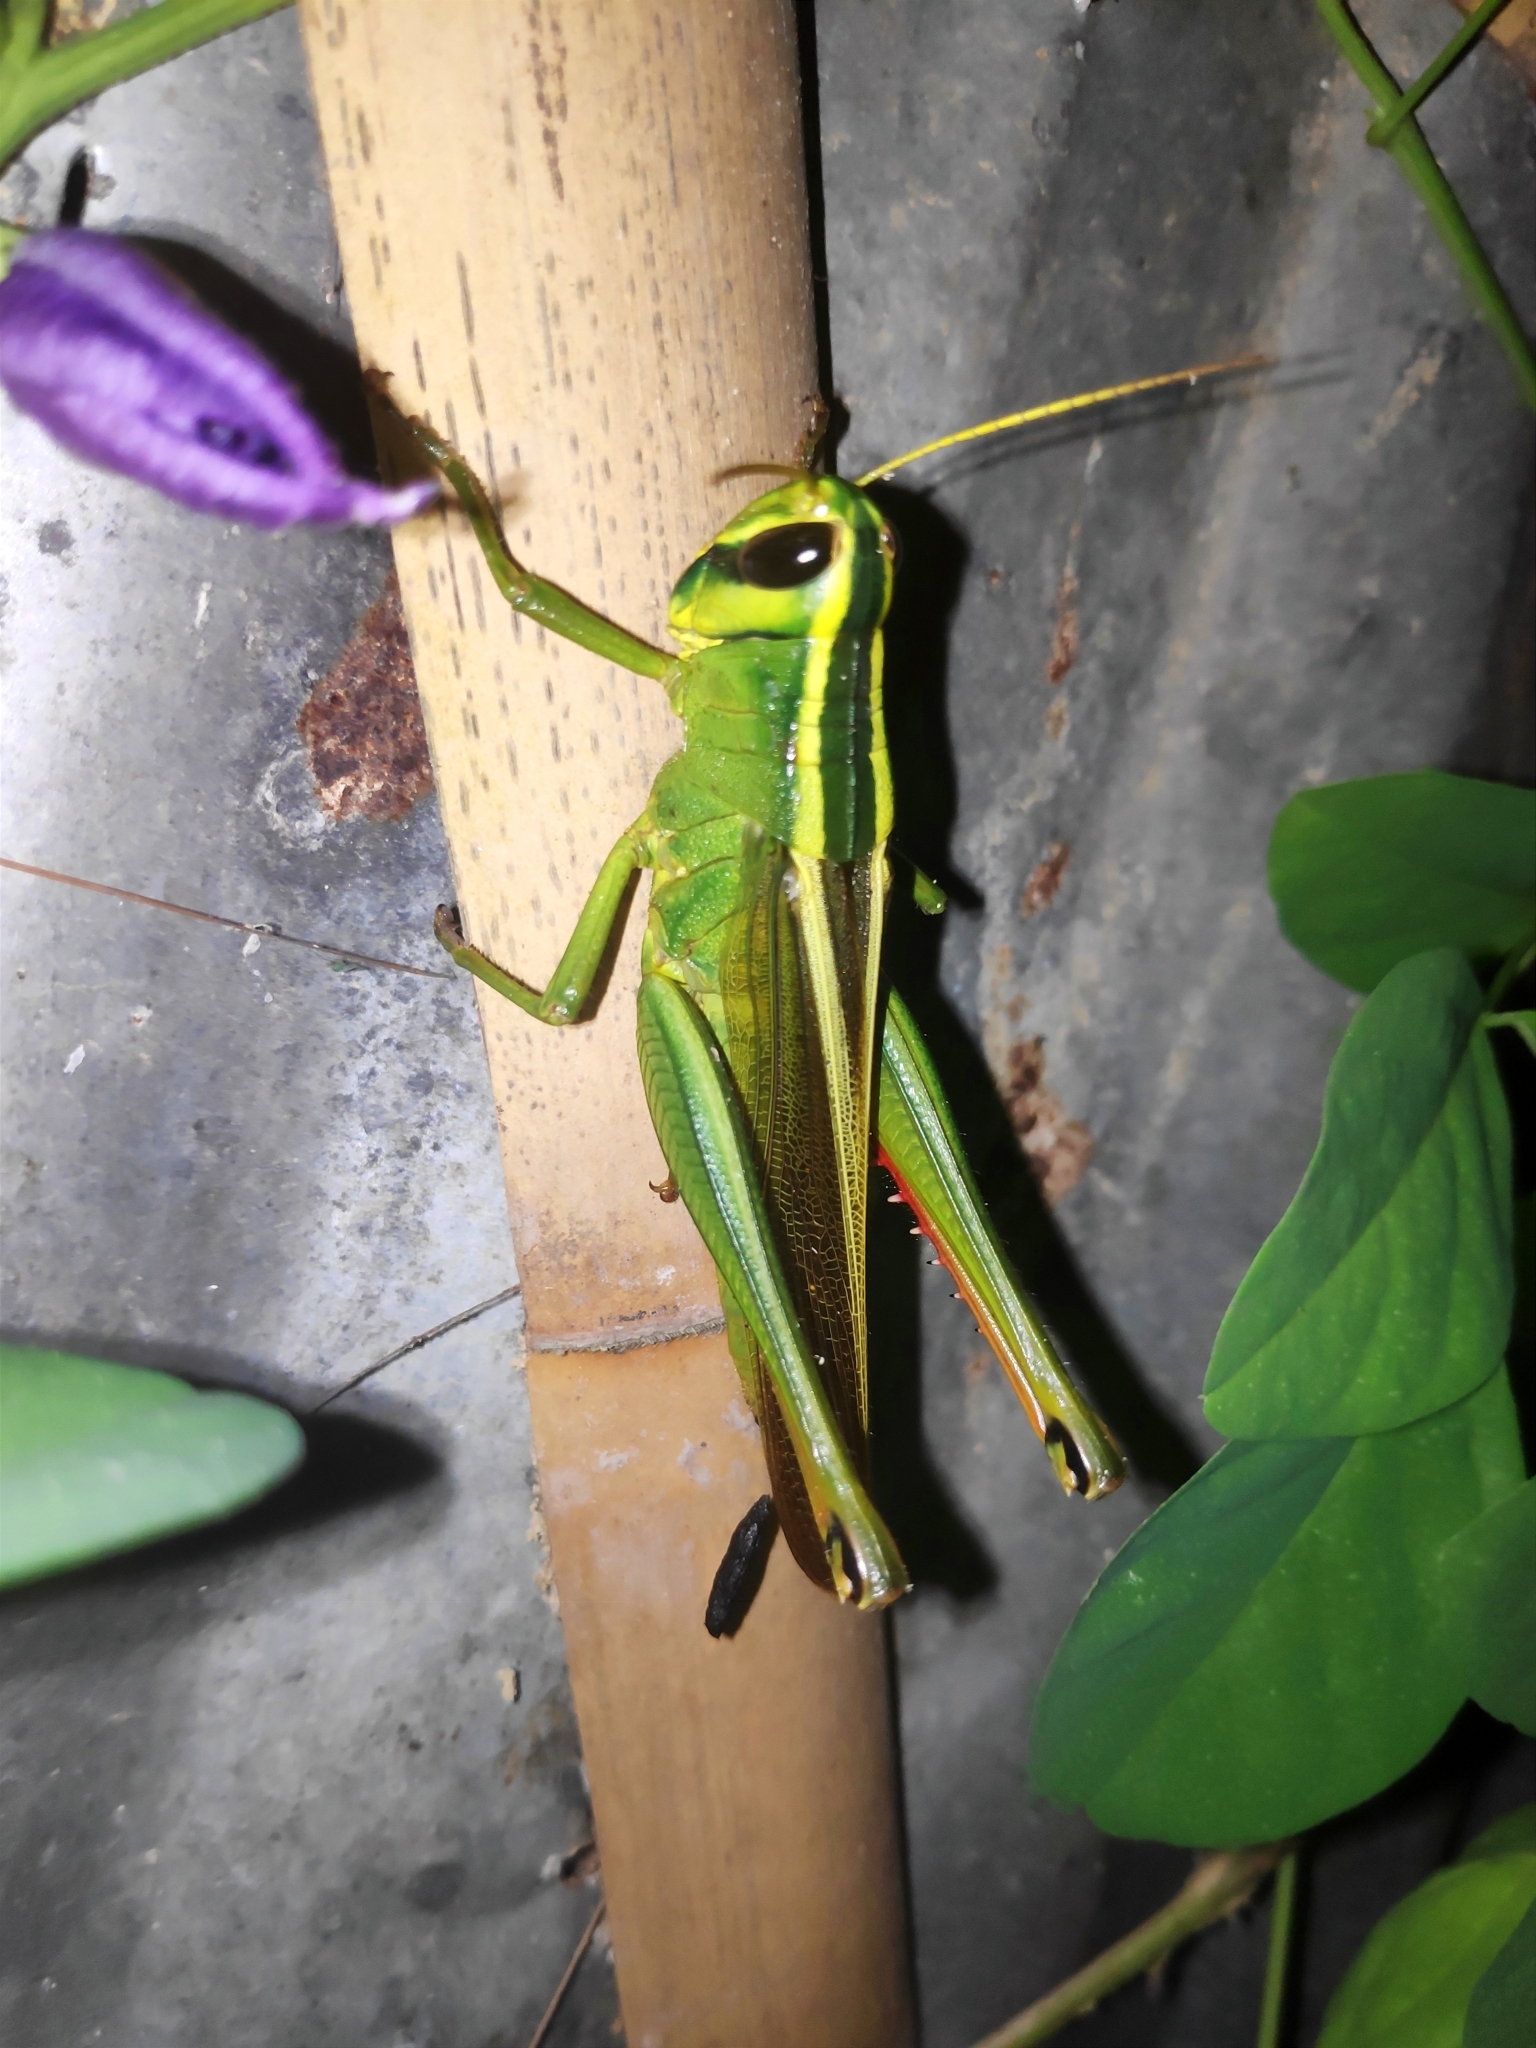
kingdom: Animalia
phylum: Arthropoda
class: Insecta
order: Orthoptera
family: Acrididae
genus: Choroedocus
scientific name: Choroedocus robustus
